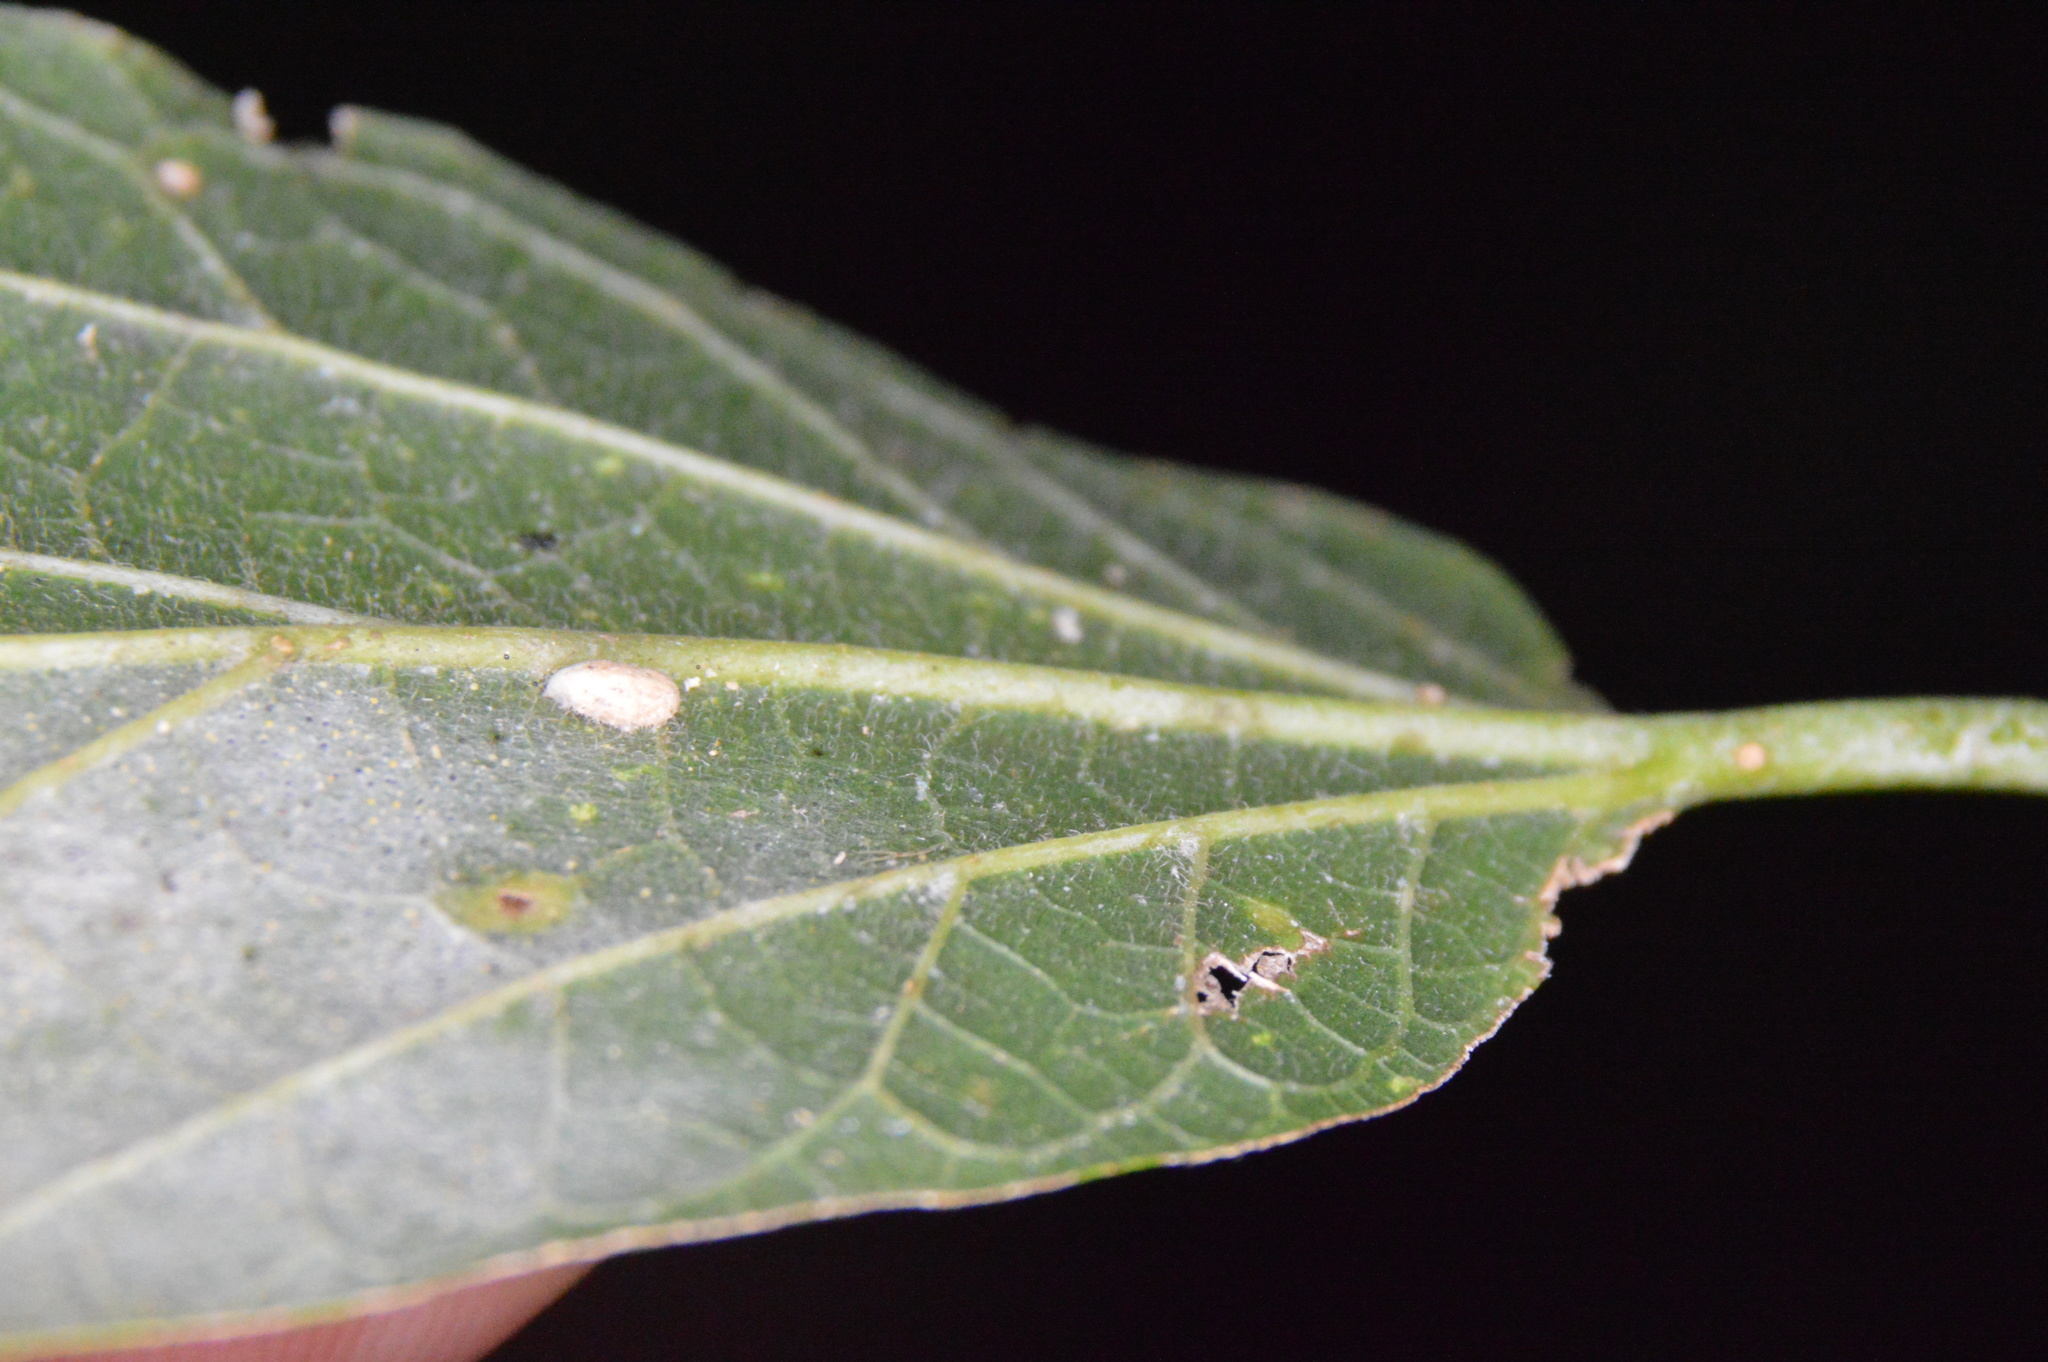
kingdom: Animalia
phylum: Arthropoda
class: Insecta
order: Diptera
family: Cecidomyiidae
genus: Celticecis
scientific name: Celticecis supina
